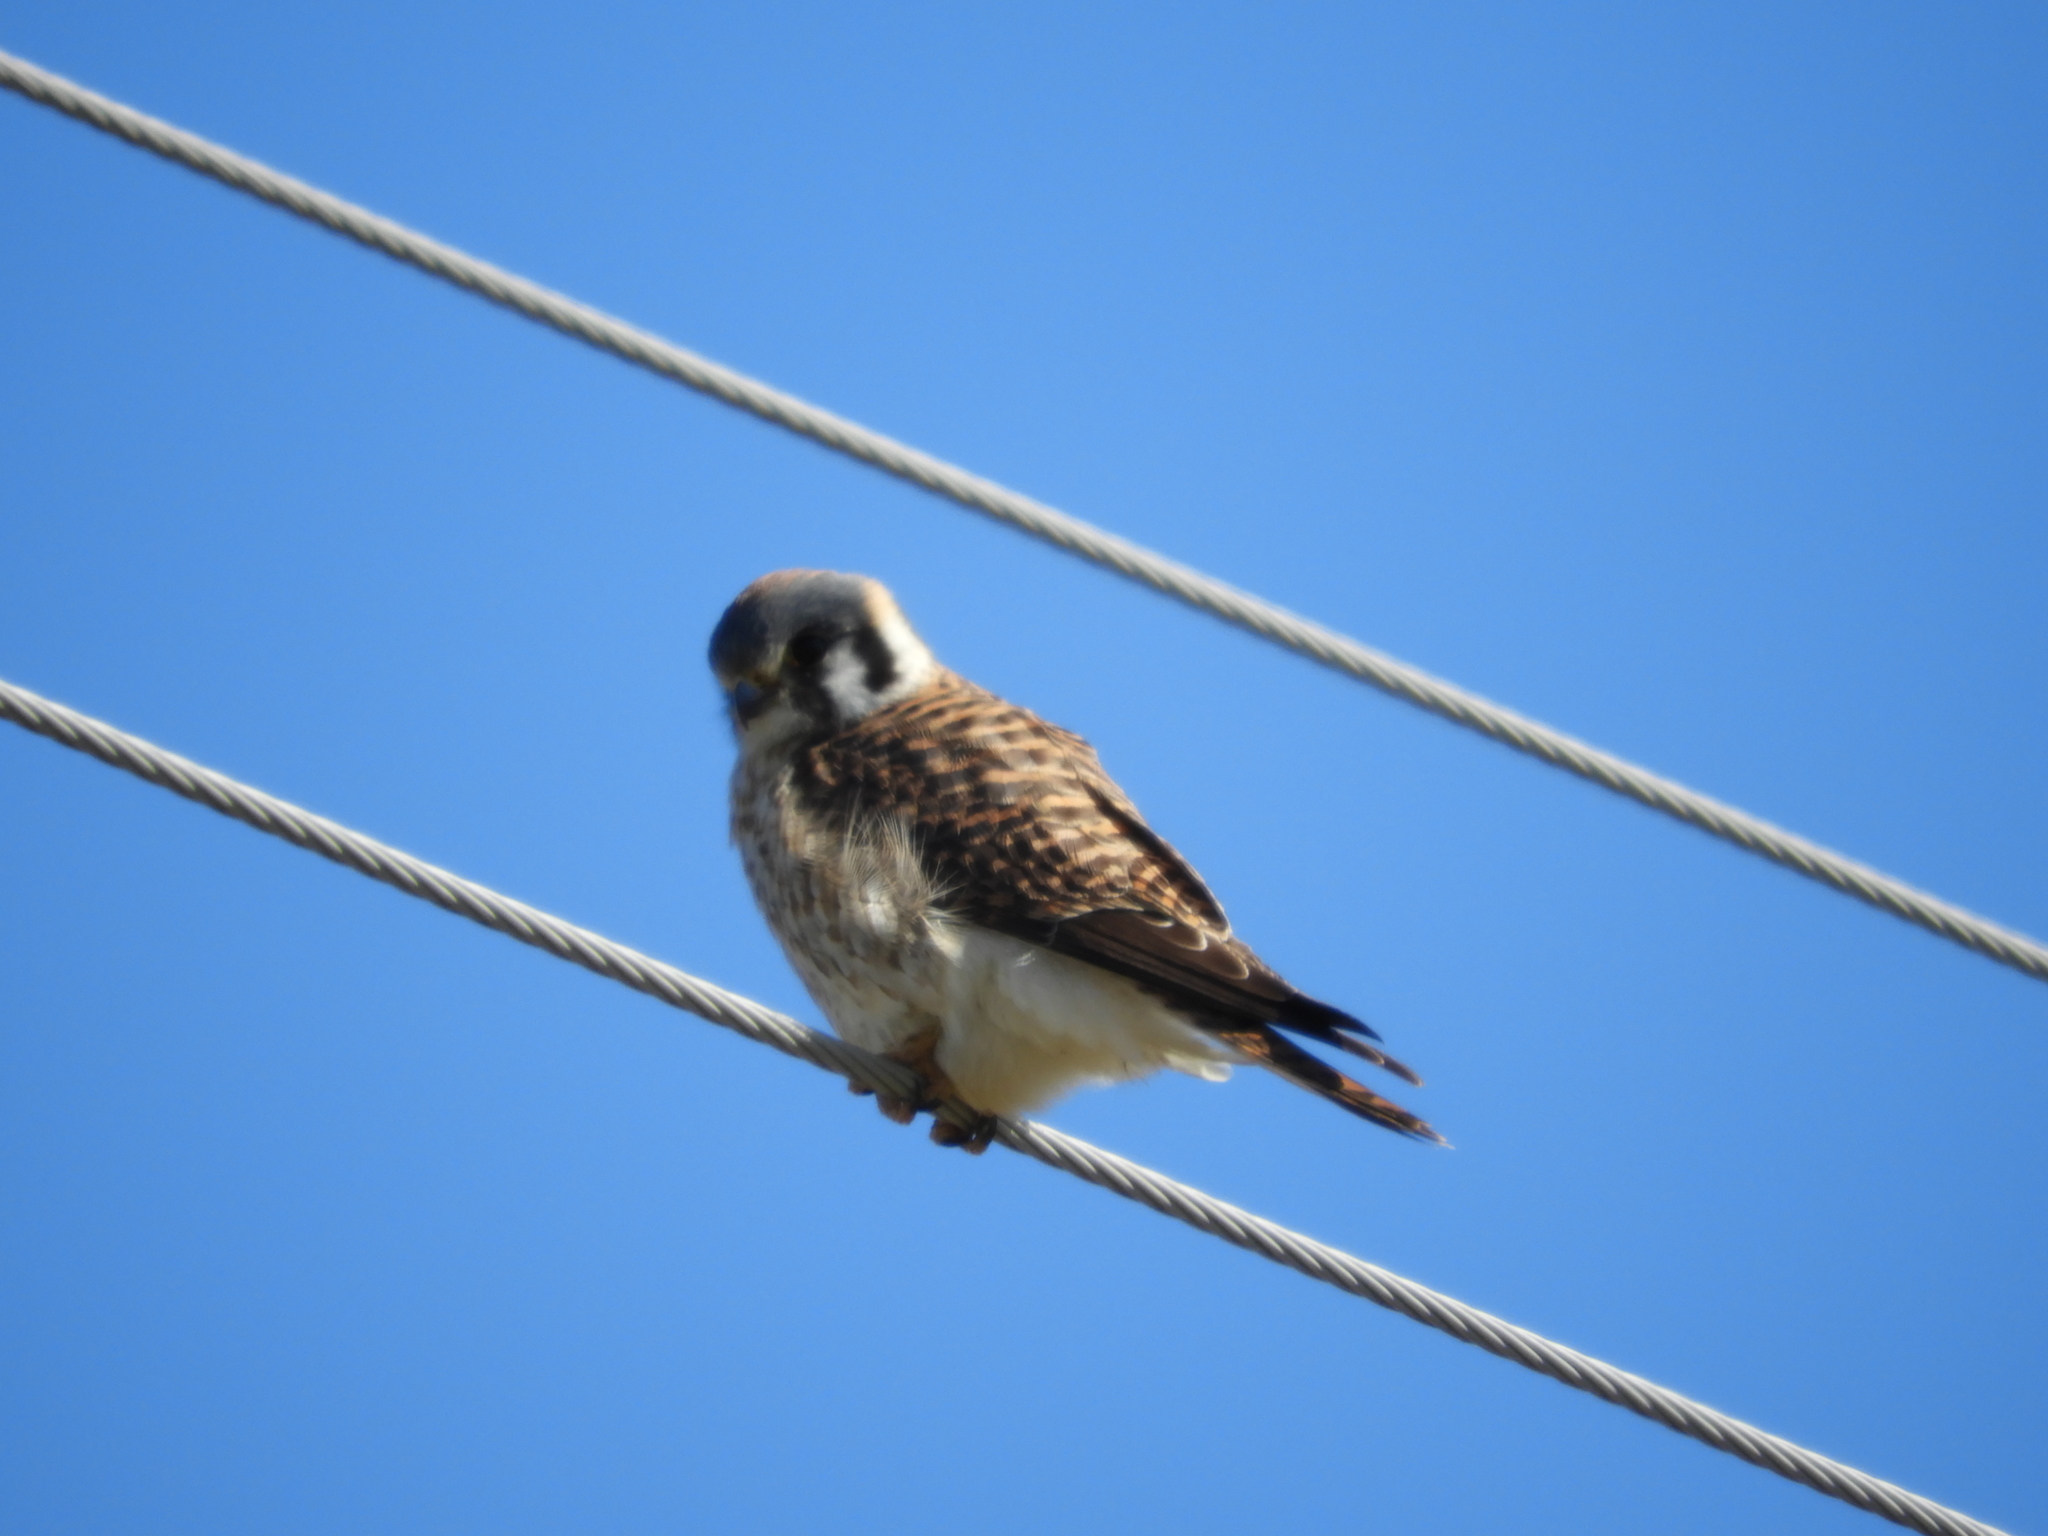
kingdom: Animalia
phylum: Chordata
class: Aves
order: Falconiformes
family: Falconidae
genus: Falco
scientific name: Falco sparverius
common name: American kestrel
